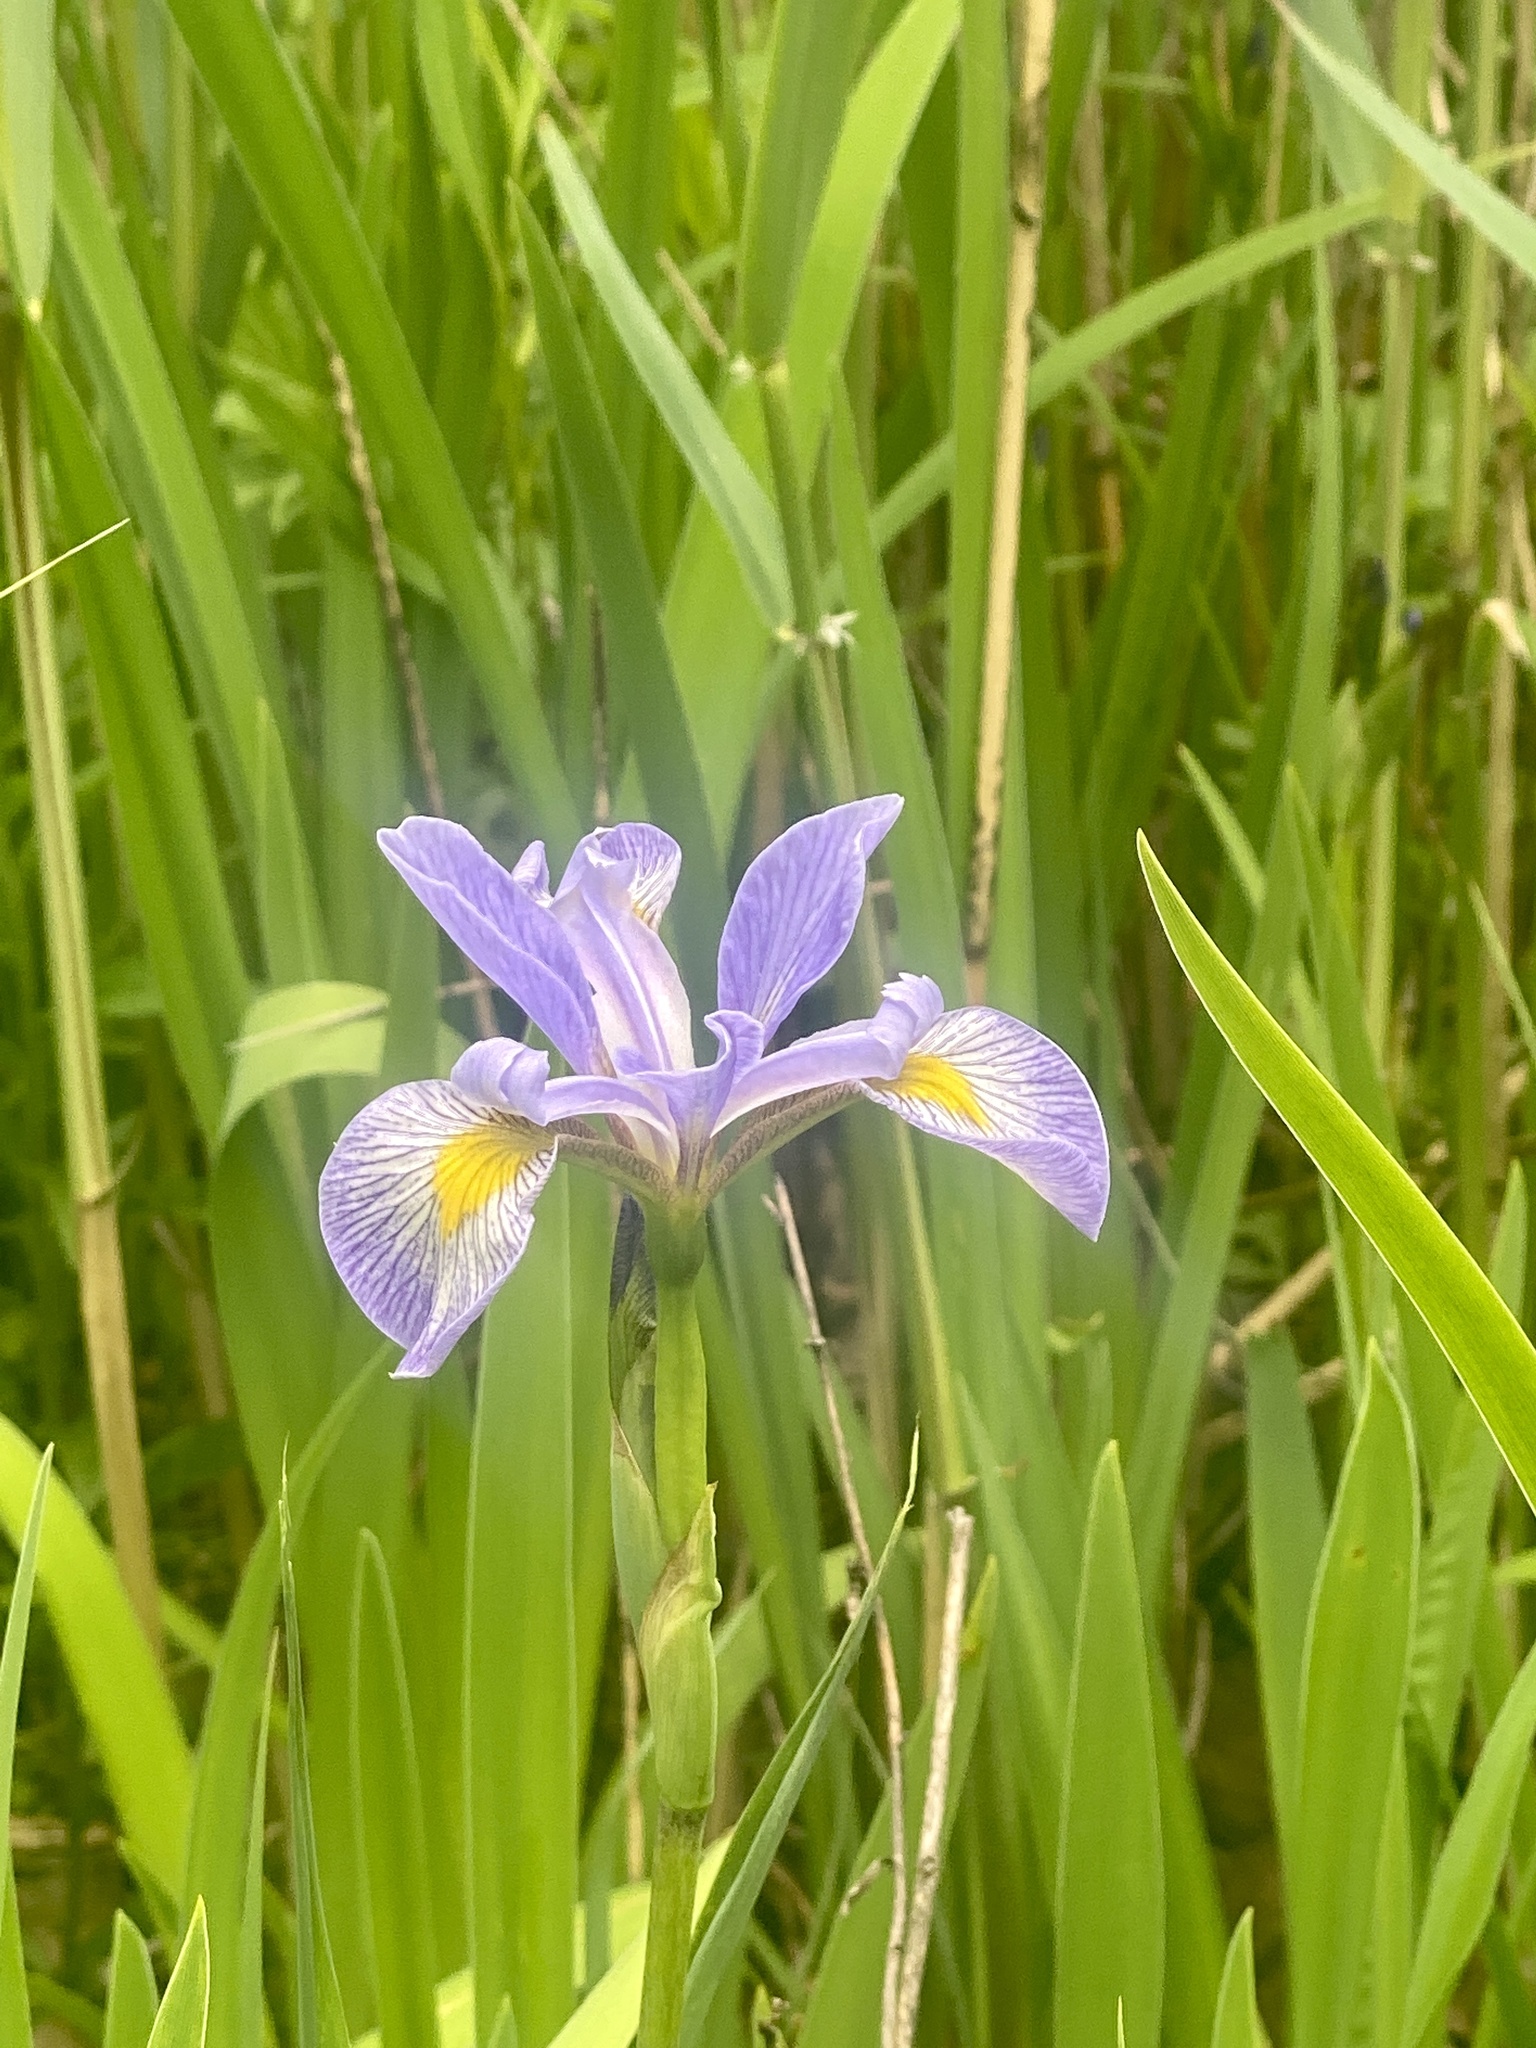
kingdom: Plantae
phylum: Tracheophyta
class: Liliopsida
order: Asparagales
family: Iridaceae
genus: Iris
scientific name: Iris versicolor
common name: Purple iris
